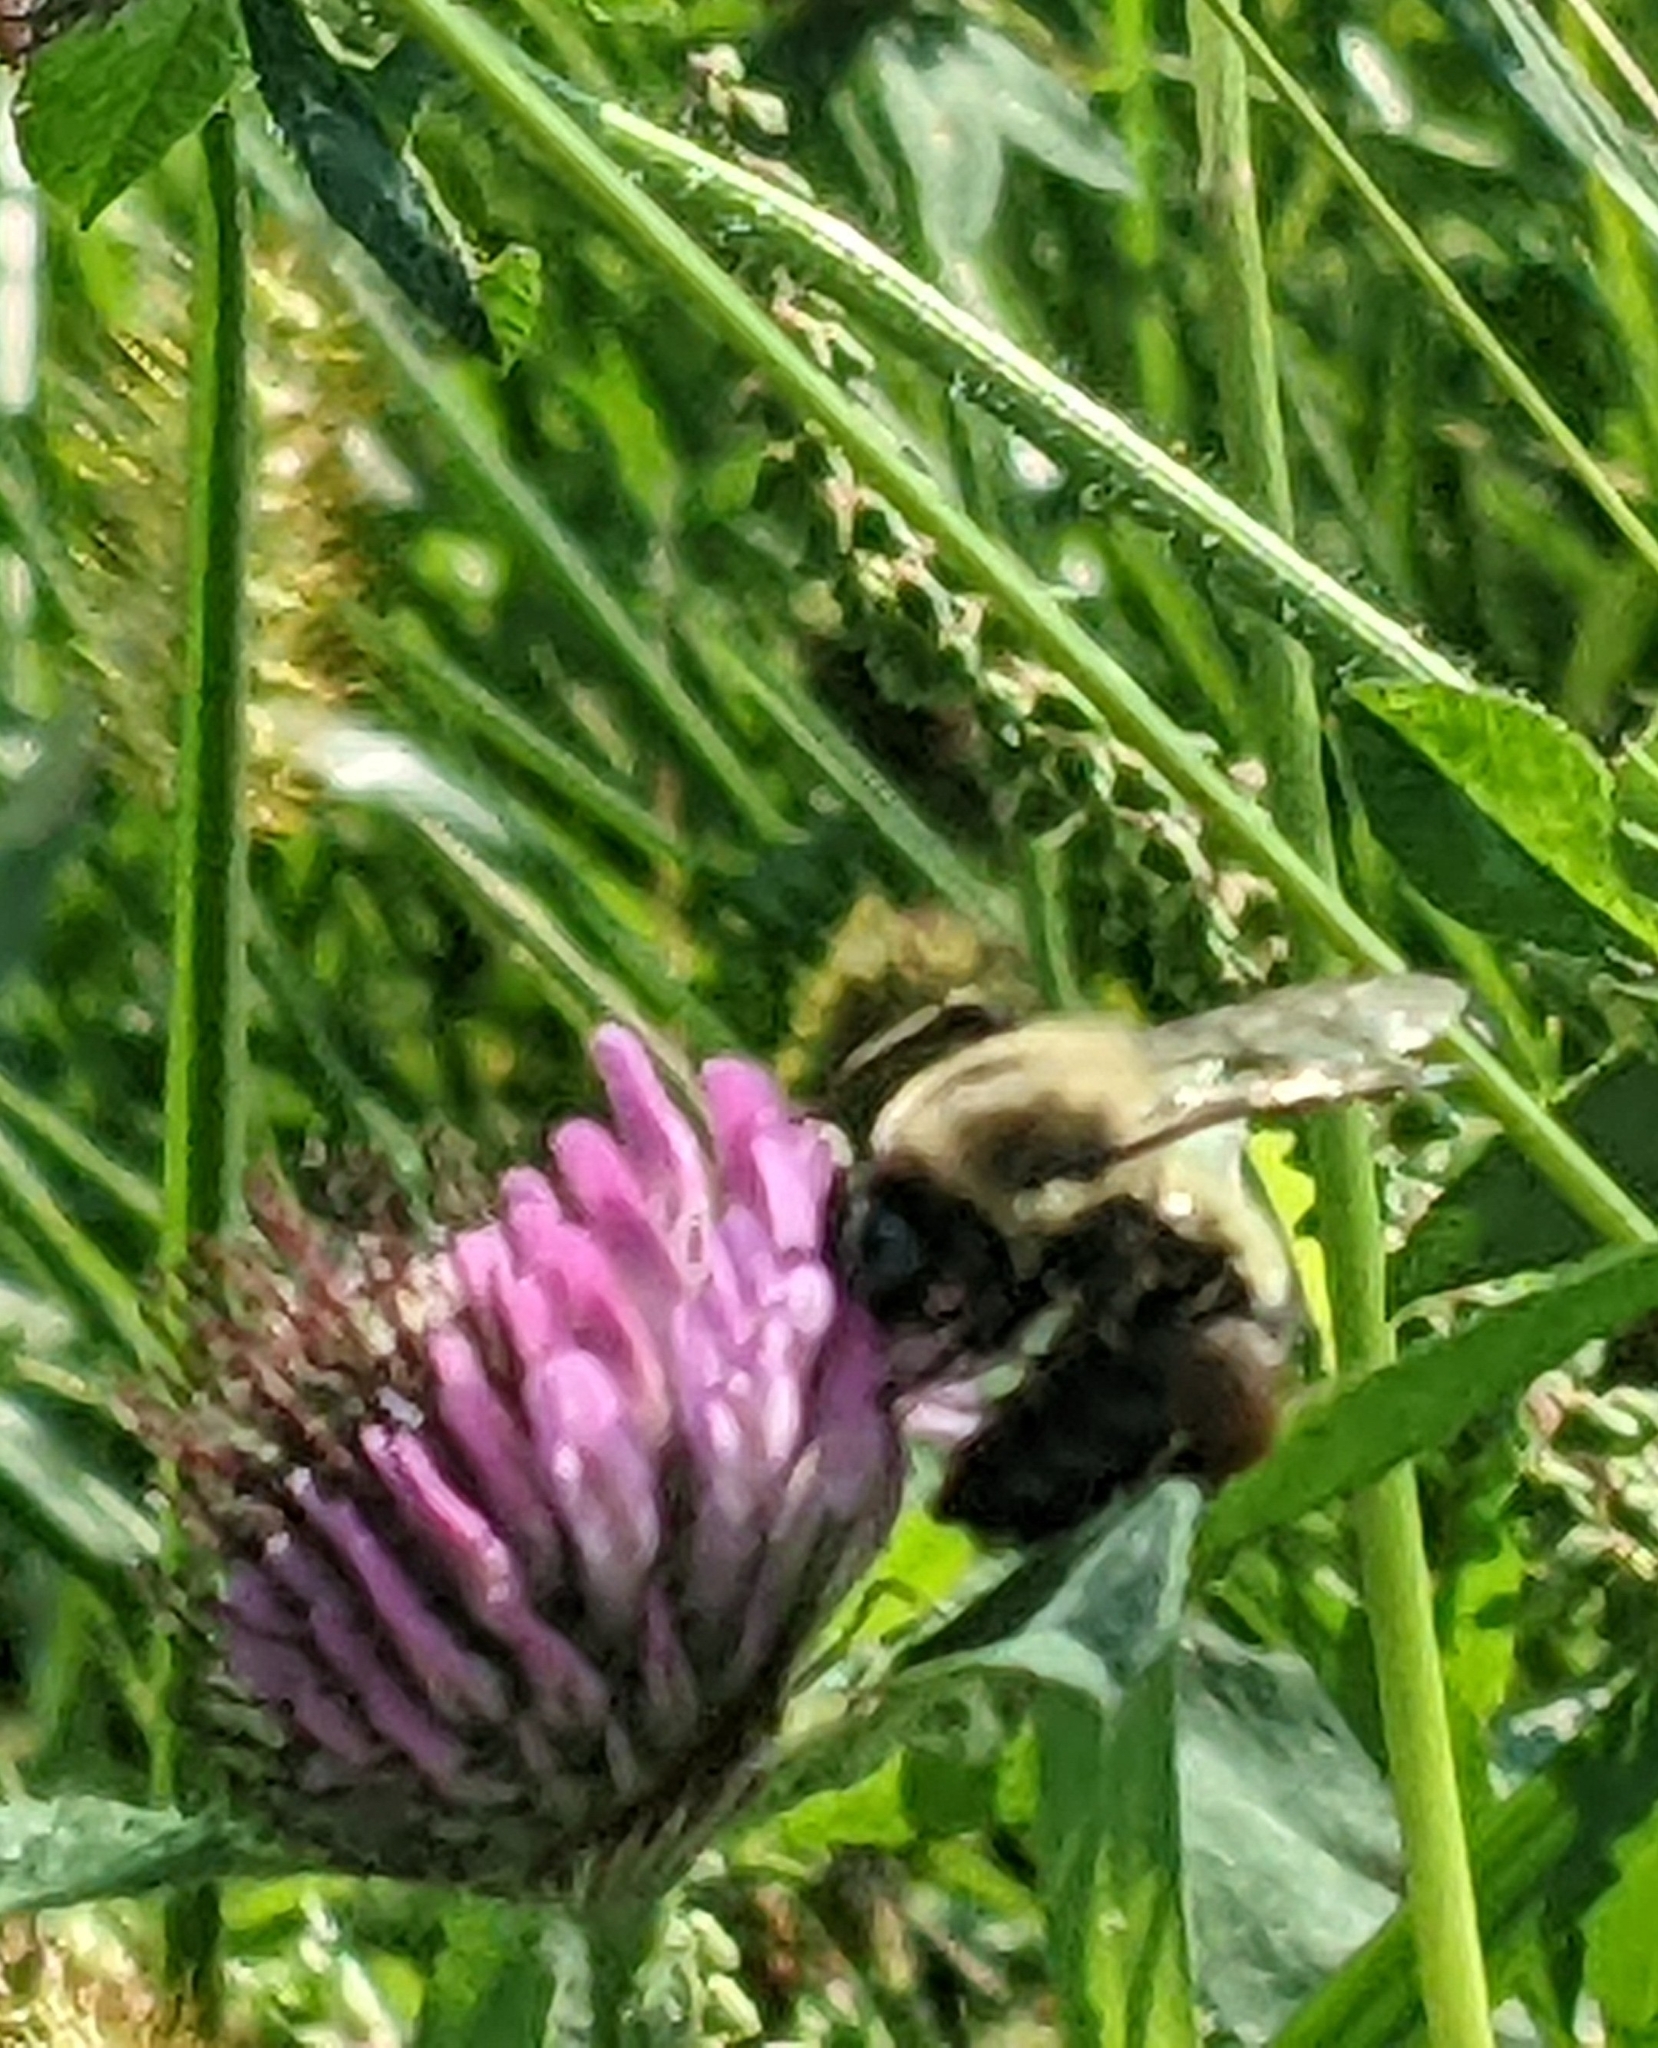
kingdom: Animalia
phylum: Arthropoda
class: Insecta
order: Hymenoptera
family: Apidae
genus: Bombus
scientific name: Bombus impatiens
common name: Common eastern bumble bee
